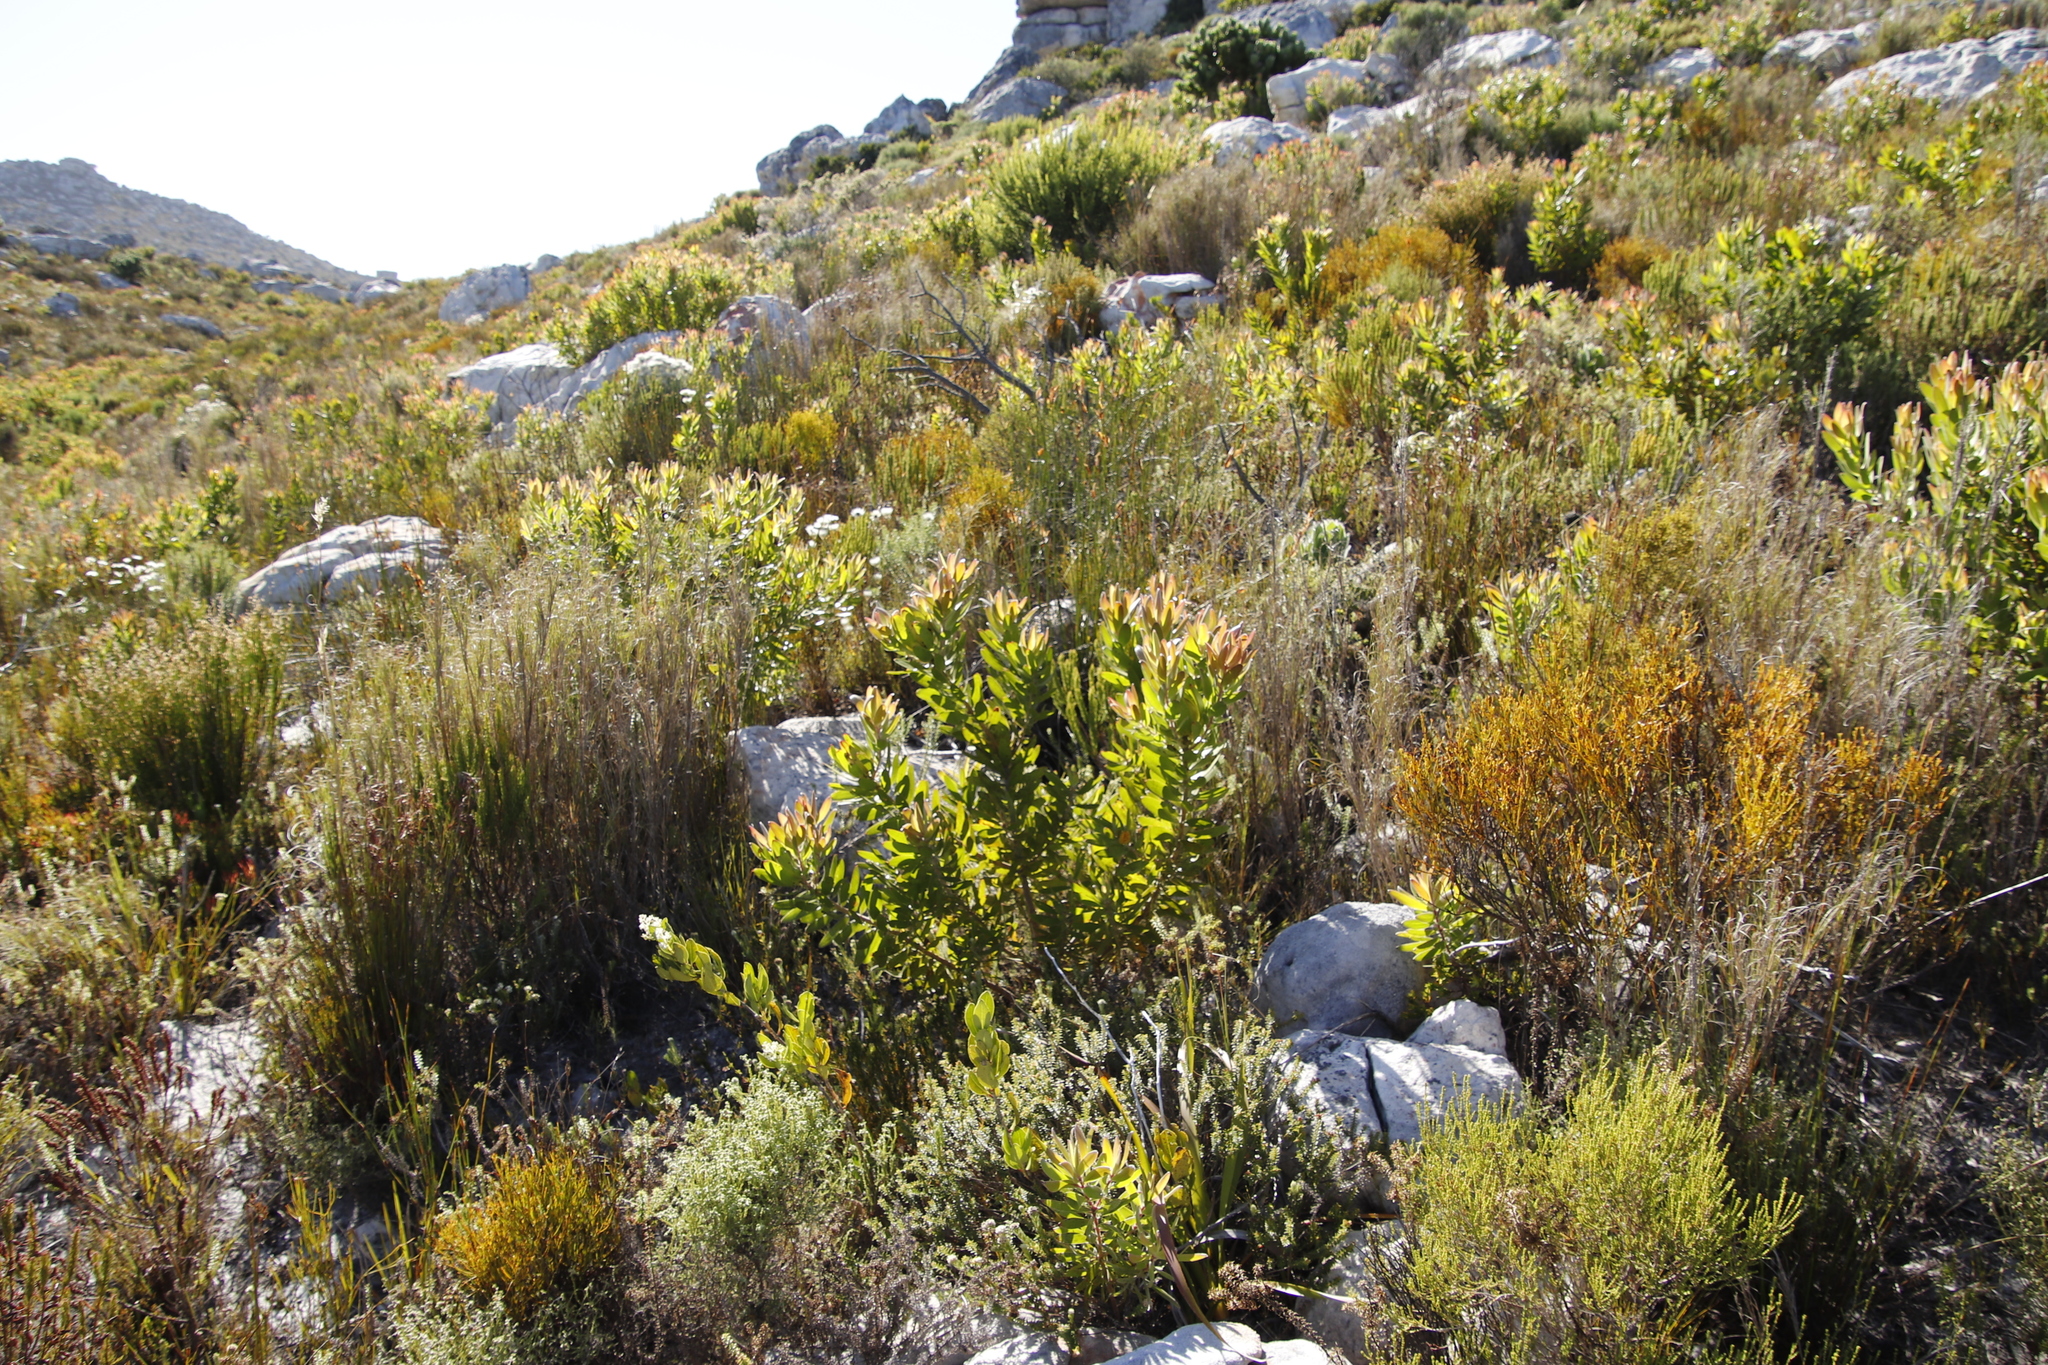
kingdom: Plantae
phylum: Tracheophyta
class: Magnoliopsida
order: Proteales
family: Proteaceae
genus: Leucadendron
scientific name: Leucadendron laureolum
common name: Golden sunshinebush
